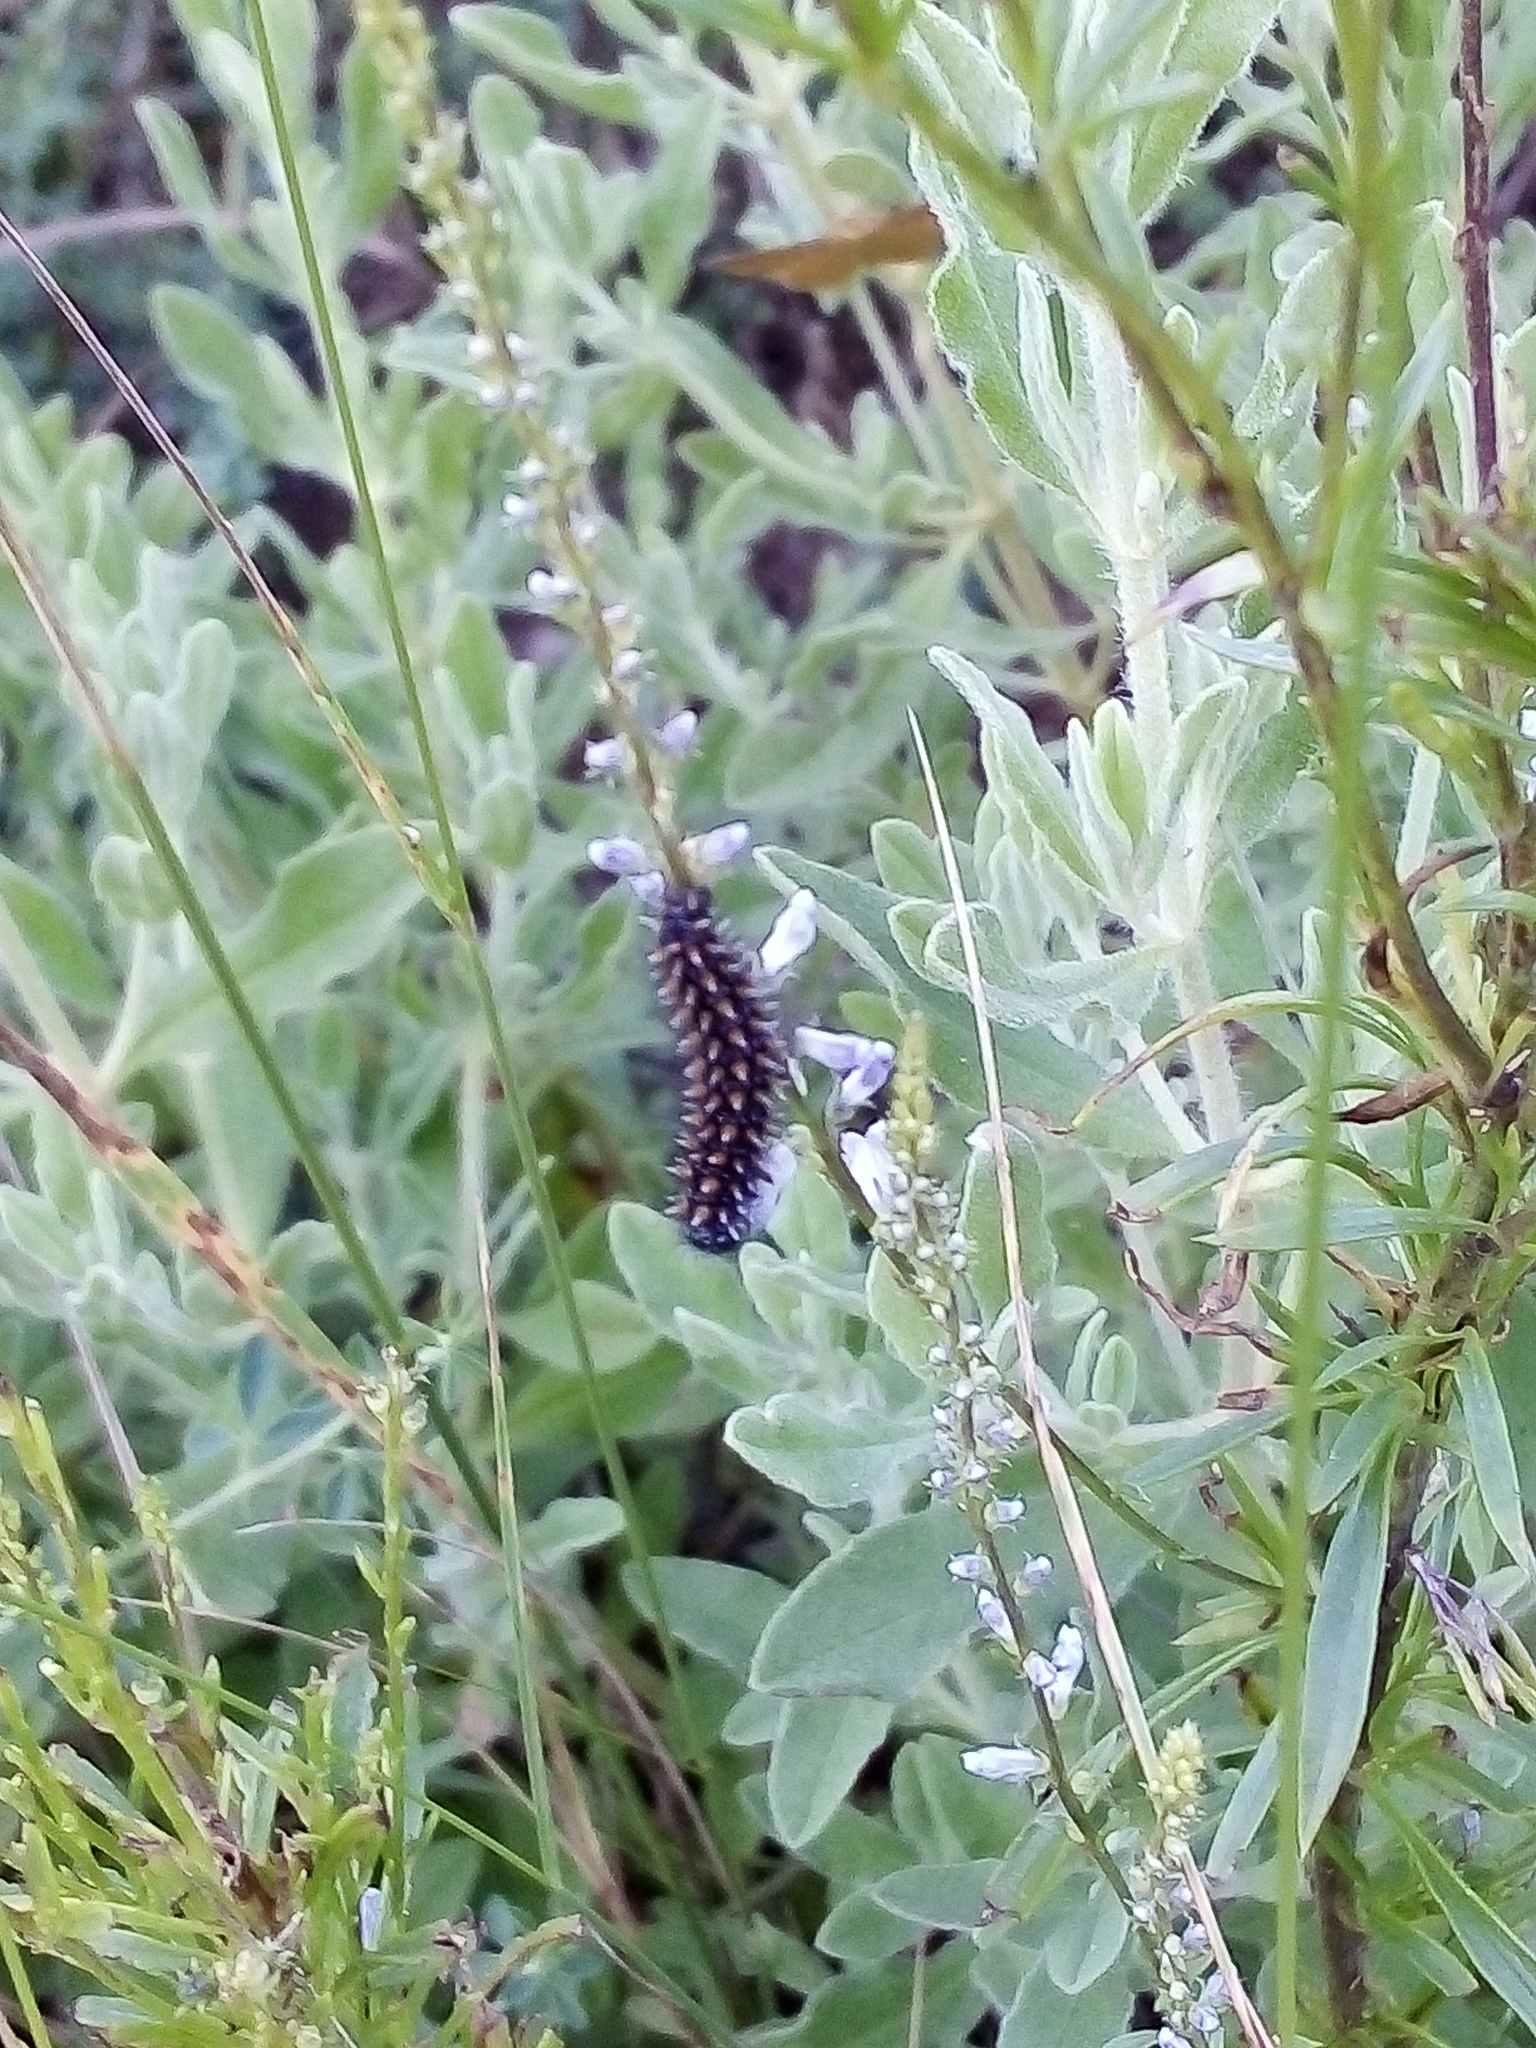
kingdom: Animalia
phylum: Arthropoda
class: Insecta
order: Lepidoptera
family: Nymphalidae
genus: Melitaea
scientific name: Melitaea deione
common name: Provençal fritillary
